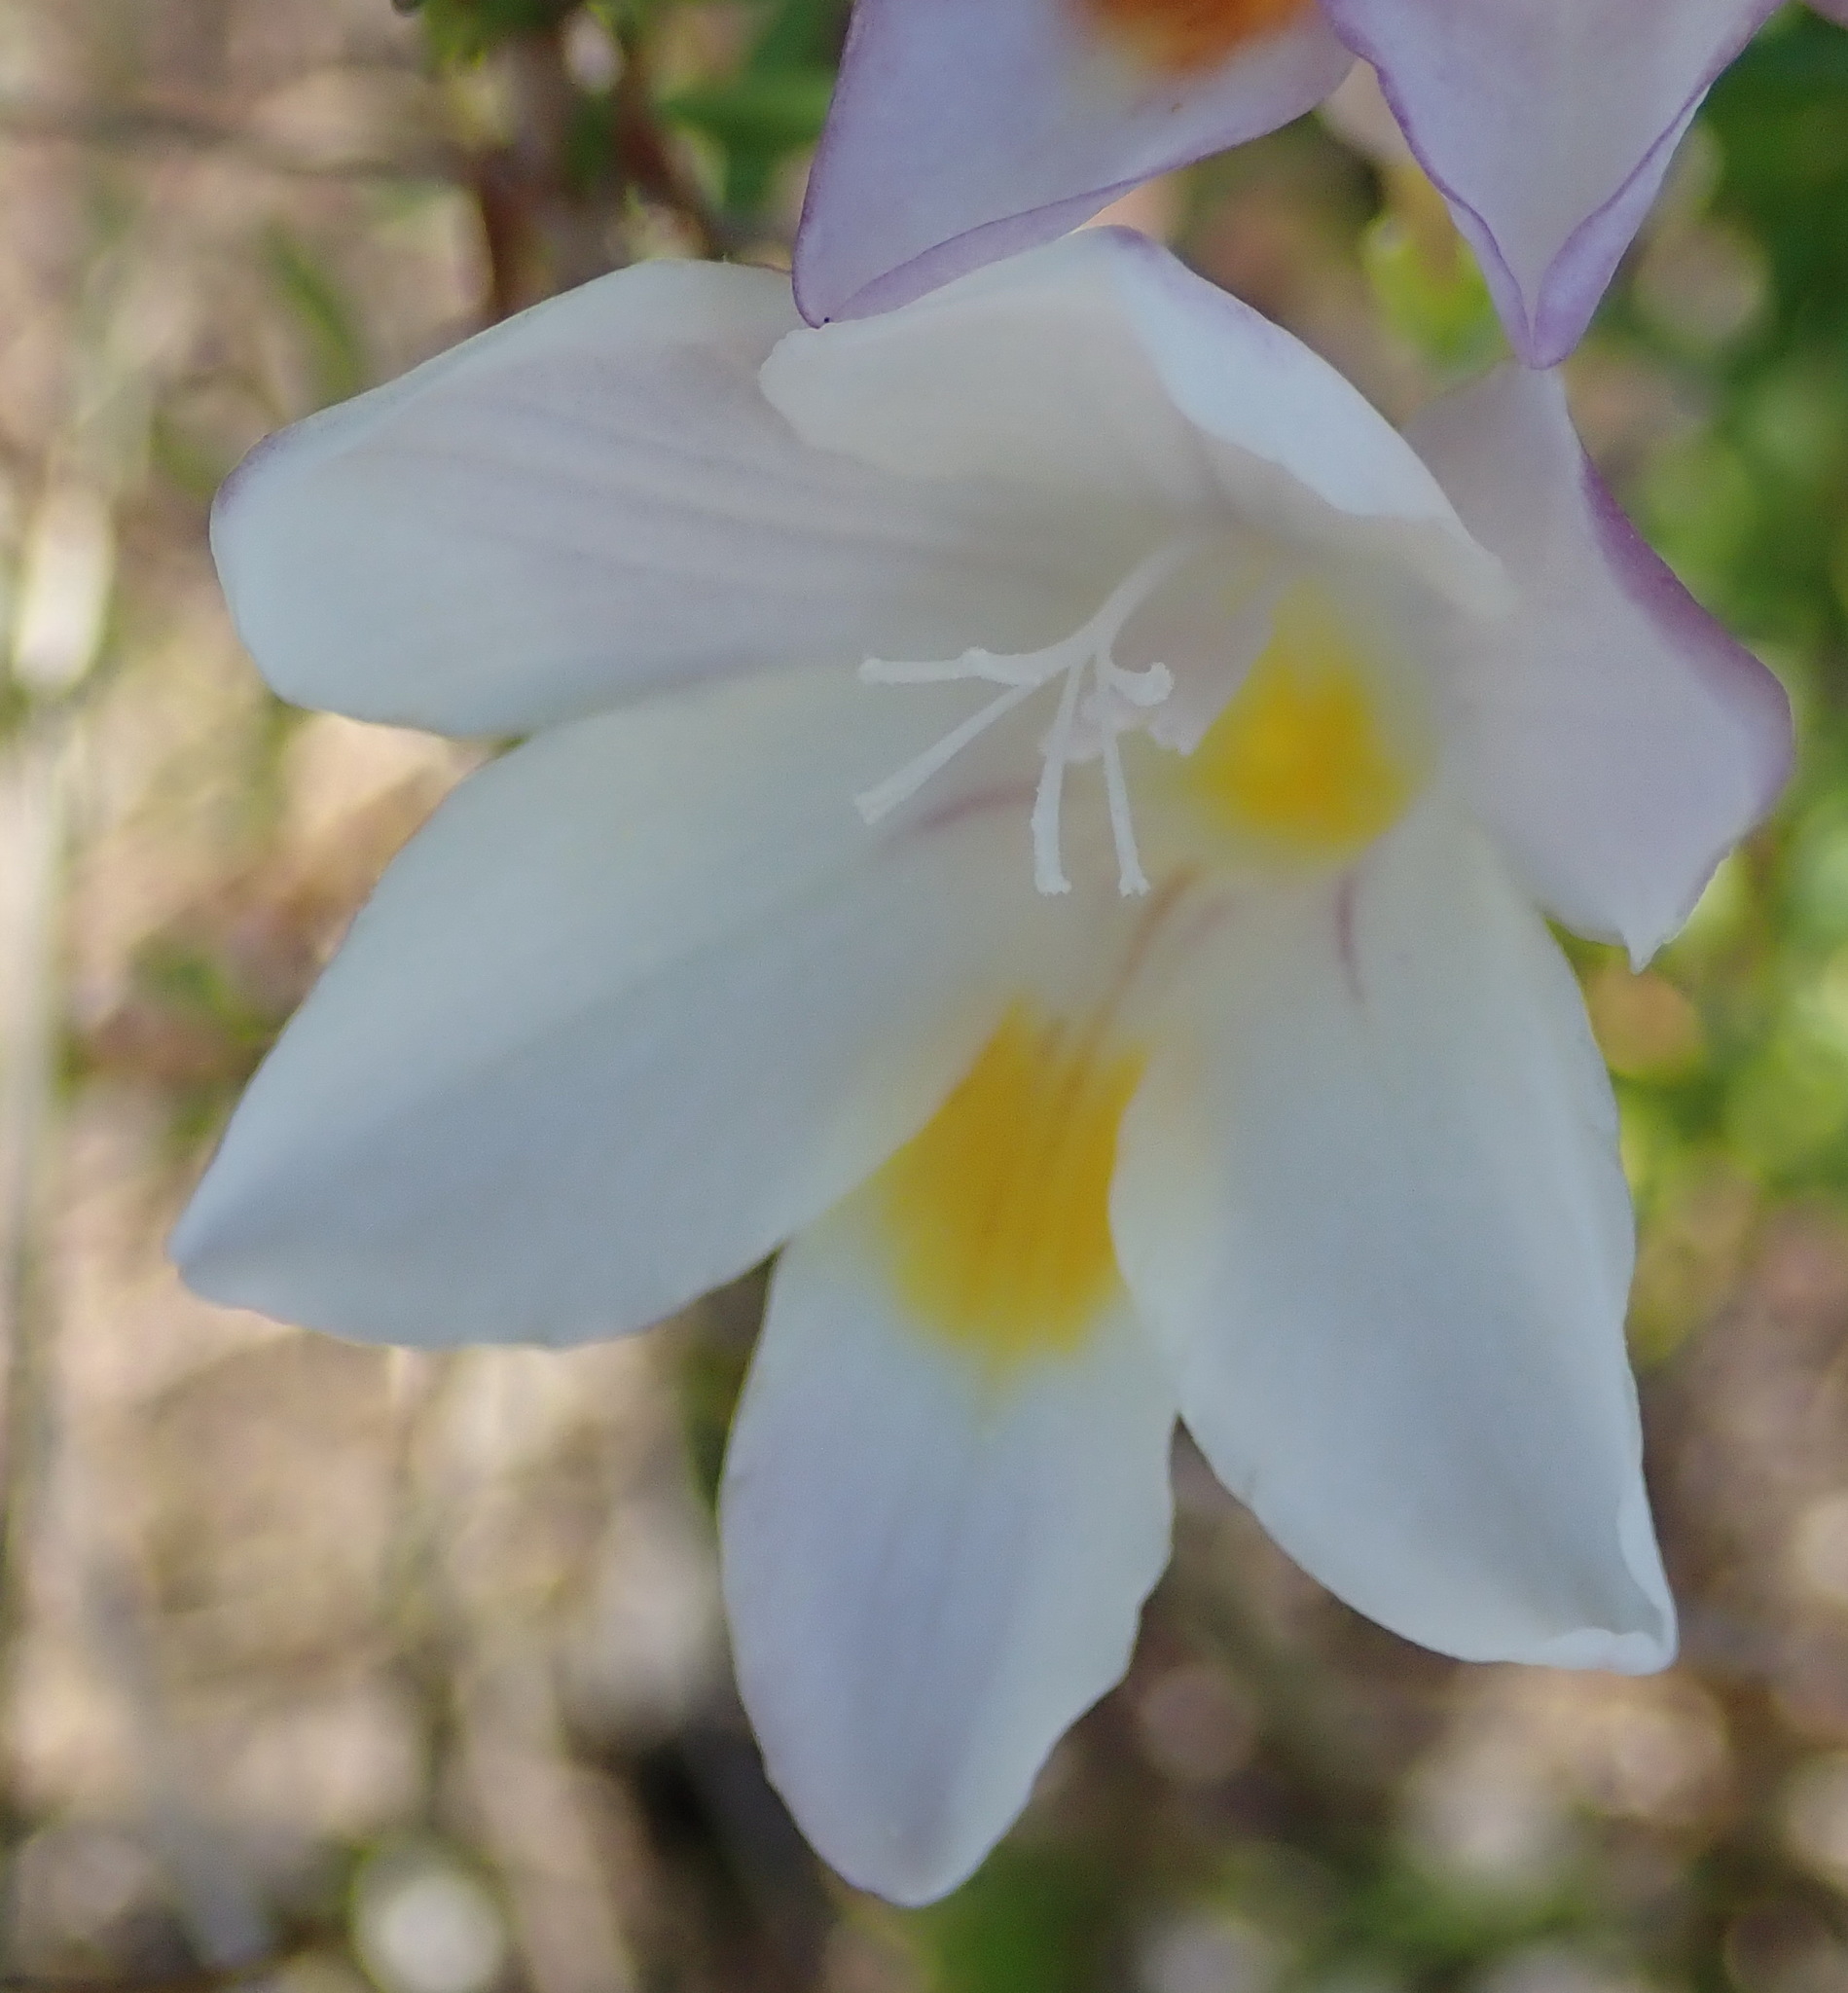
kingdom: Plantae
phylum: Tracheophyta
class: Liliopsida
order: Asparagales
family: Iridaceae
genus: Freesia
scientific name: Freesia leichtlinii
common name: Freesia
